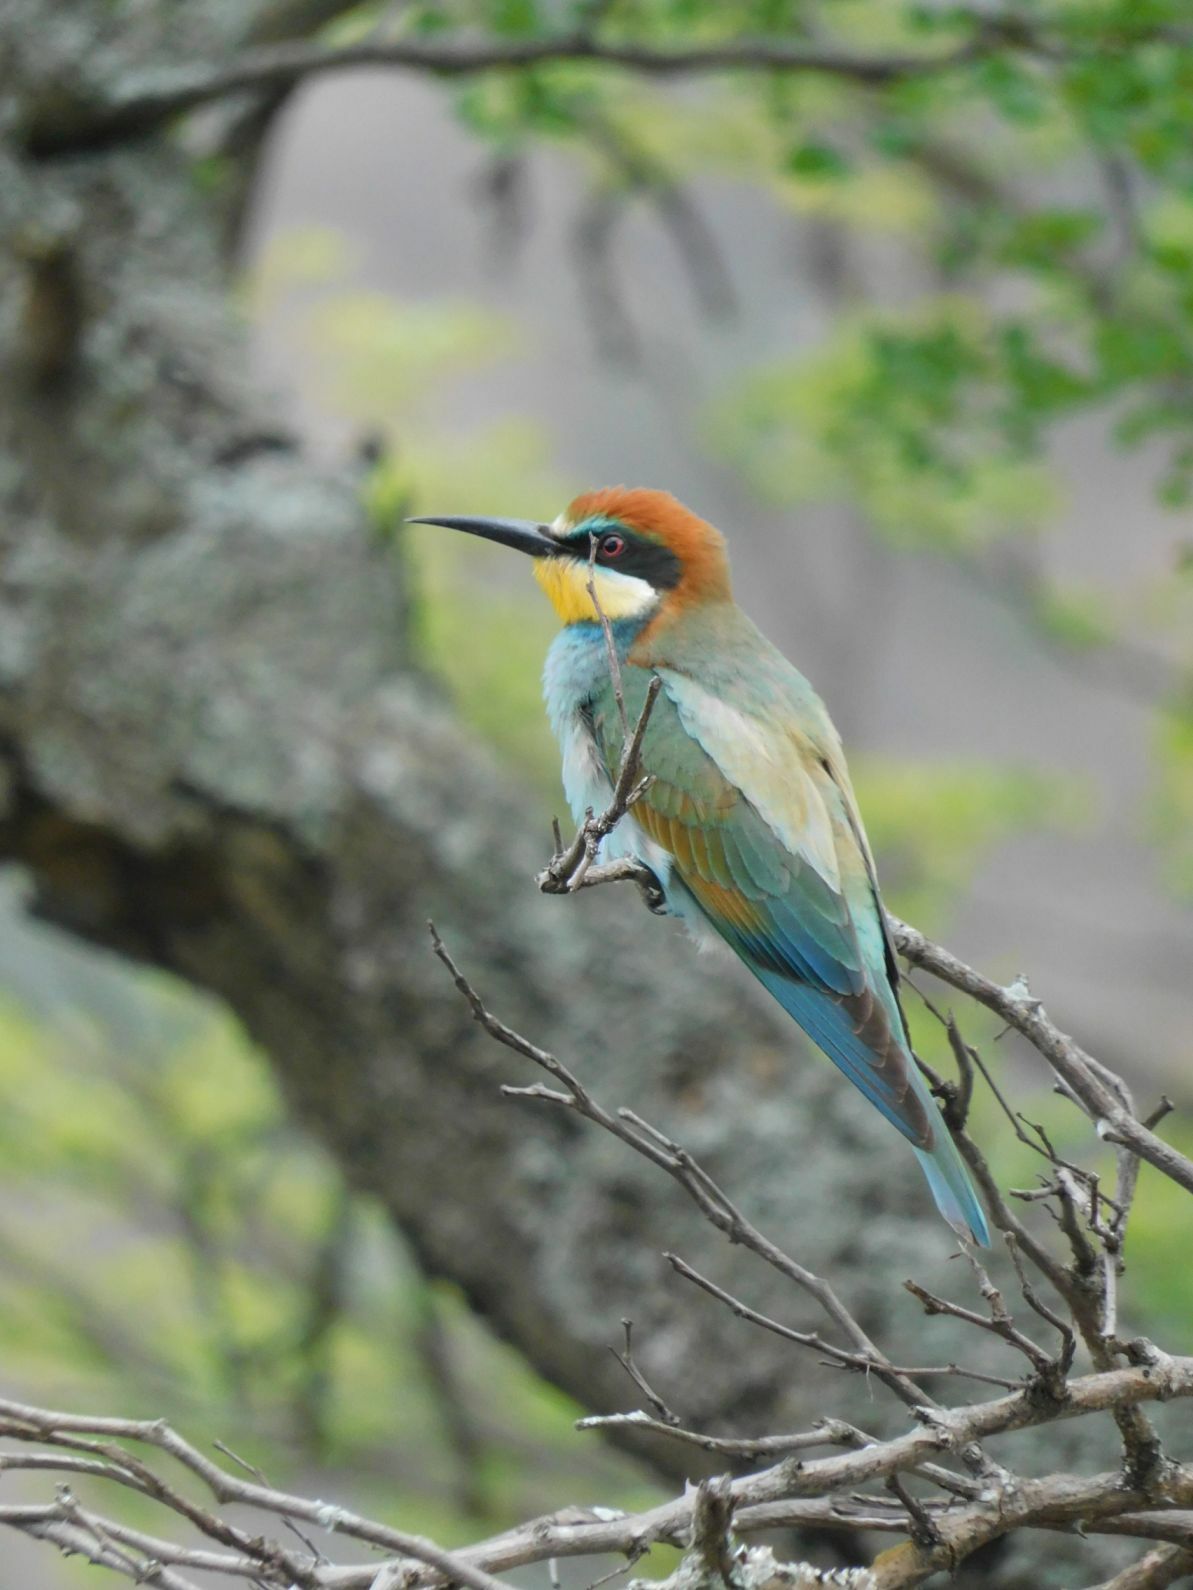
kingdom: Animalia
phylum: Chordata
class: Aves
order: Coraciiformes
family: Meropidae
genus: Merops
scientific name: Merops apiaster
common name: European bee-eater
